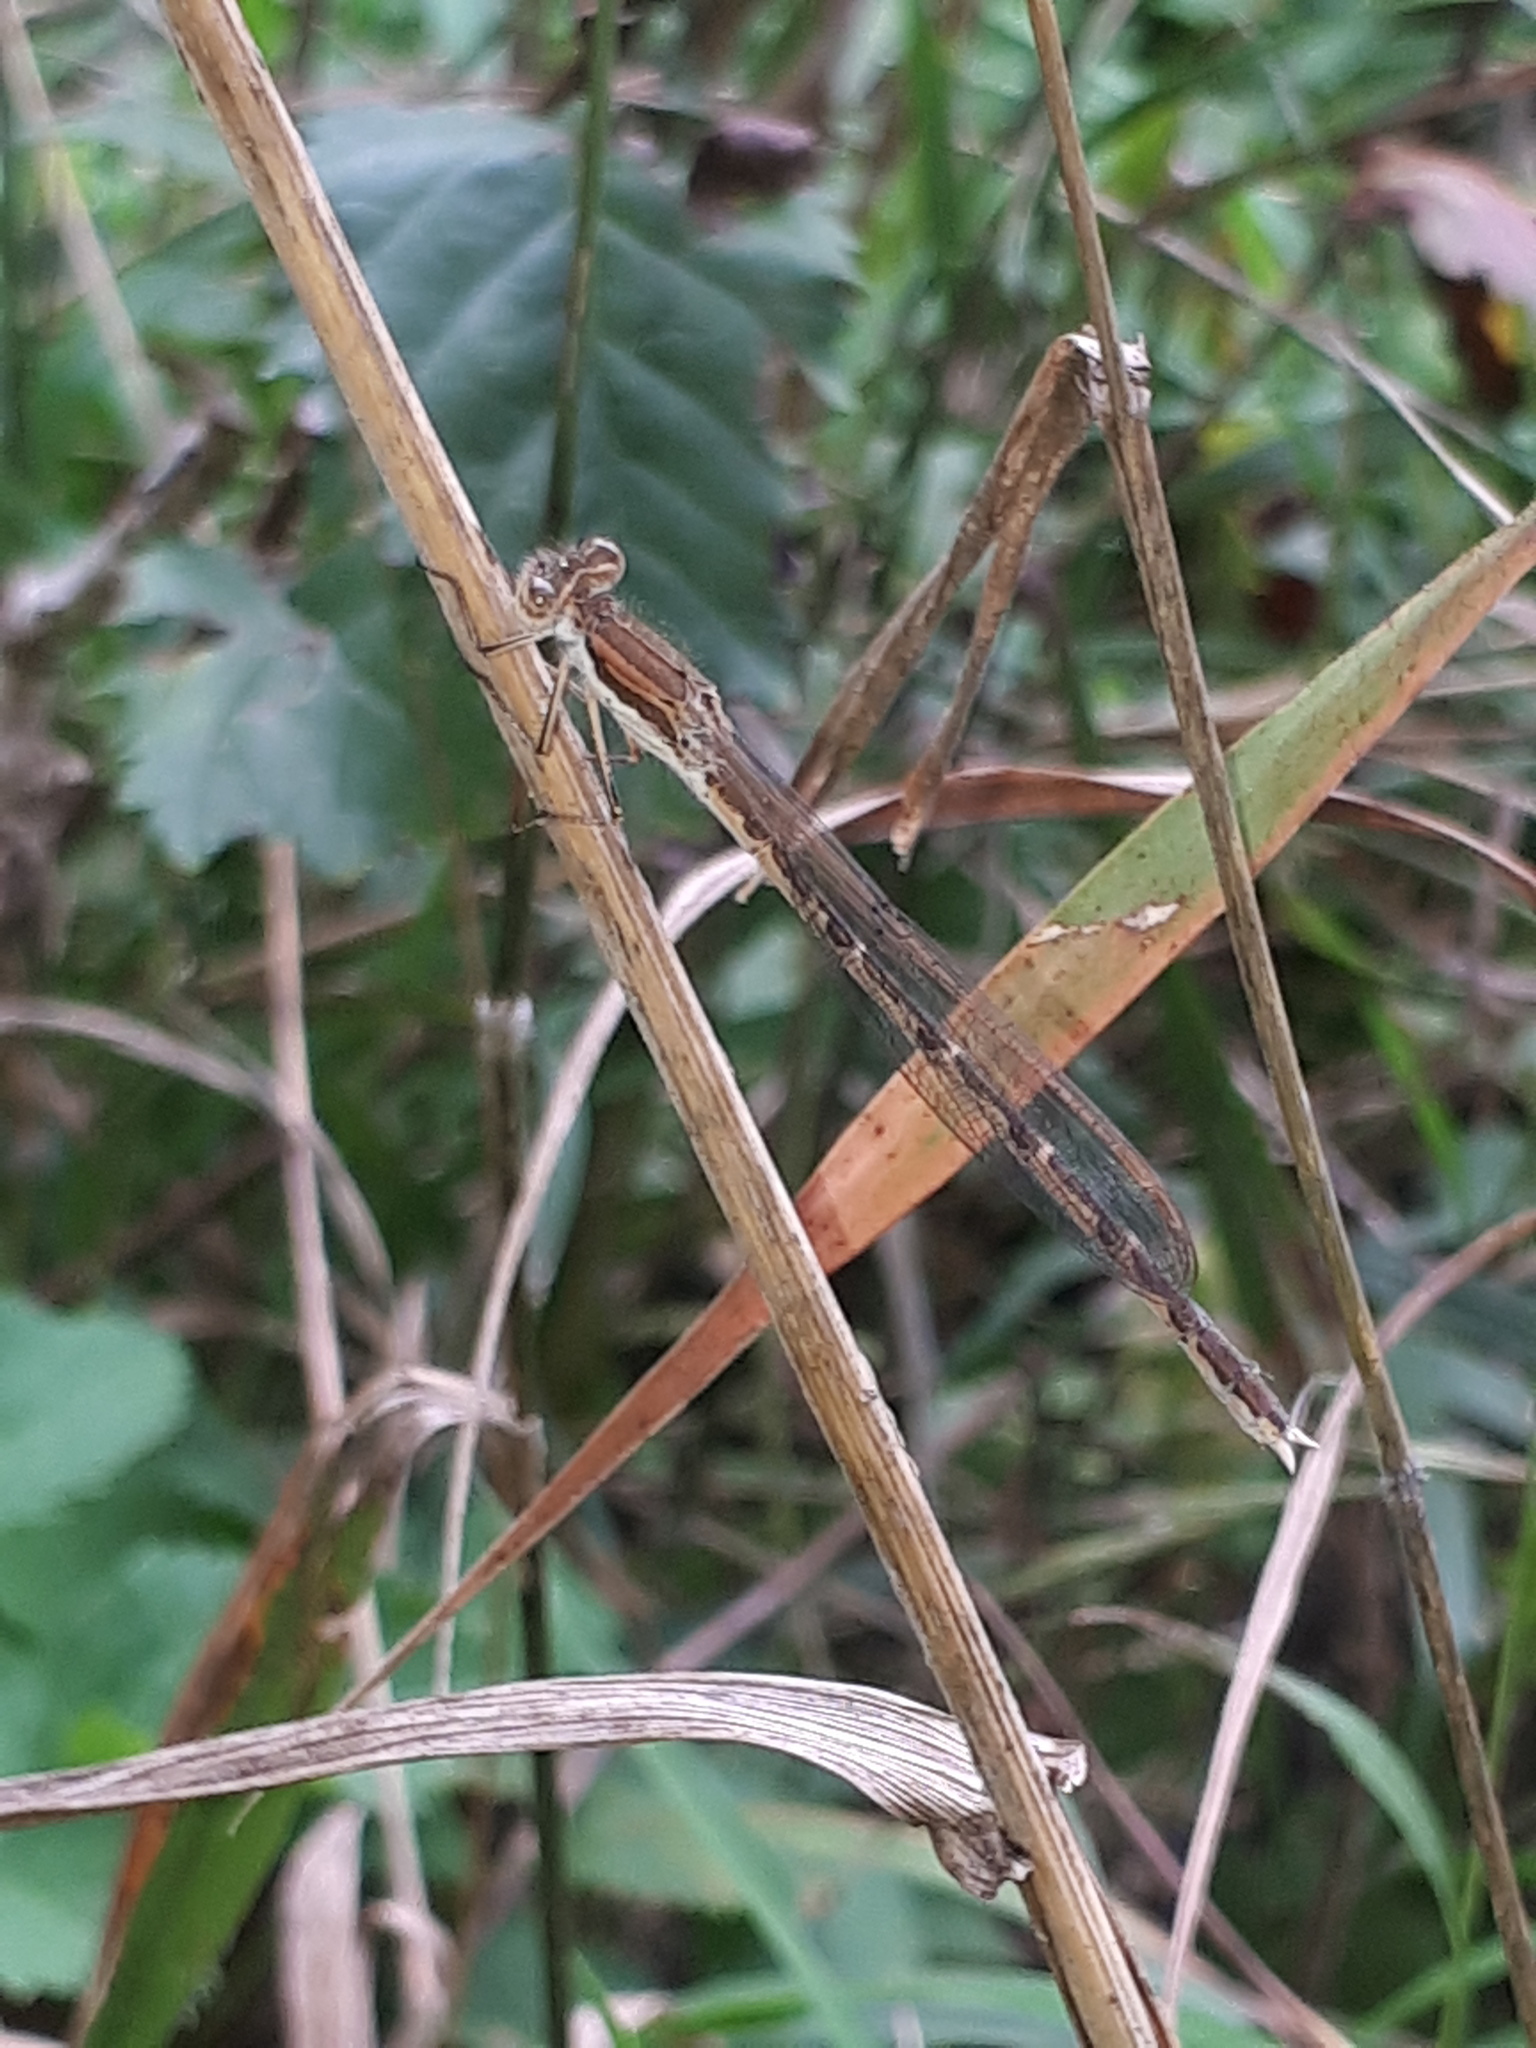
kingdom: Animalia
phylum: Arthropoda
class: Insecta
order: Odonata
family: Lestidae
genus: Sympecma
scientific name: Sympecma fusca
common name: Common winter damsel
